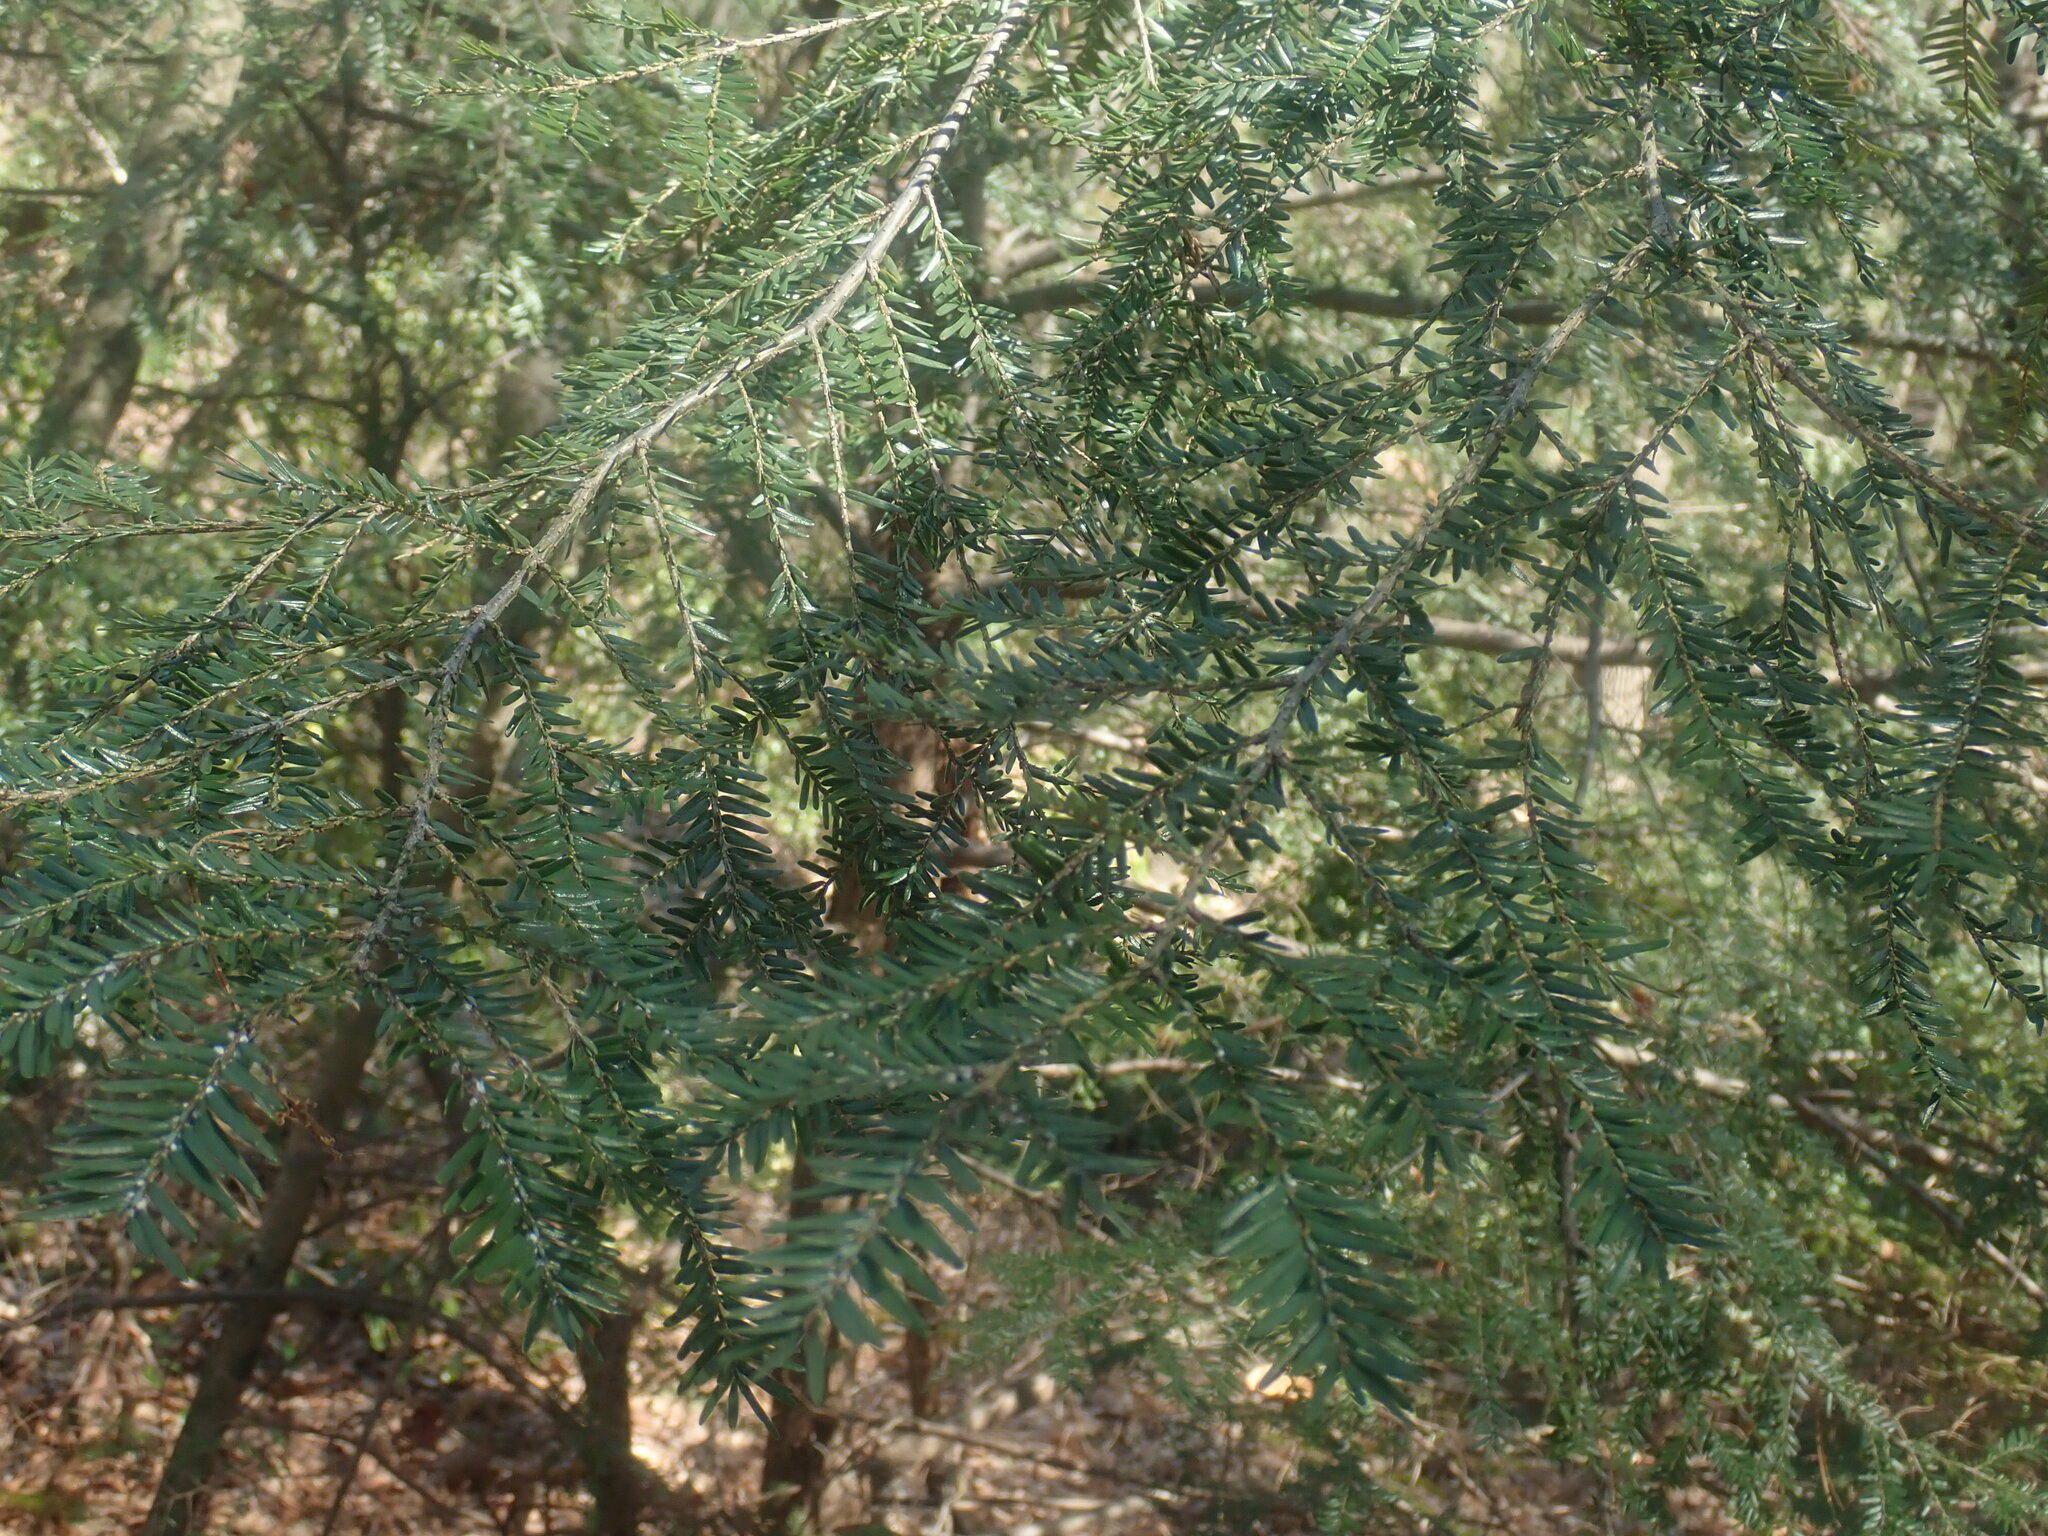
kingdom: Plantae
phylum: Tracheophyta
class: Pinopsida
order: Pinales
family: Pinaceae
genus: Tsuga
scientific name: Tsuga canadensis
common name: Eastern hemlock
